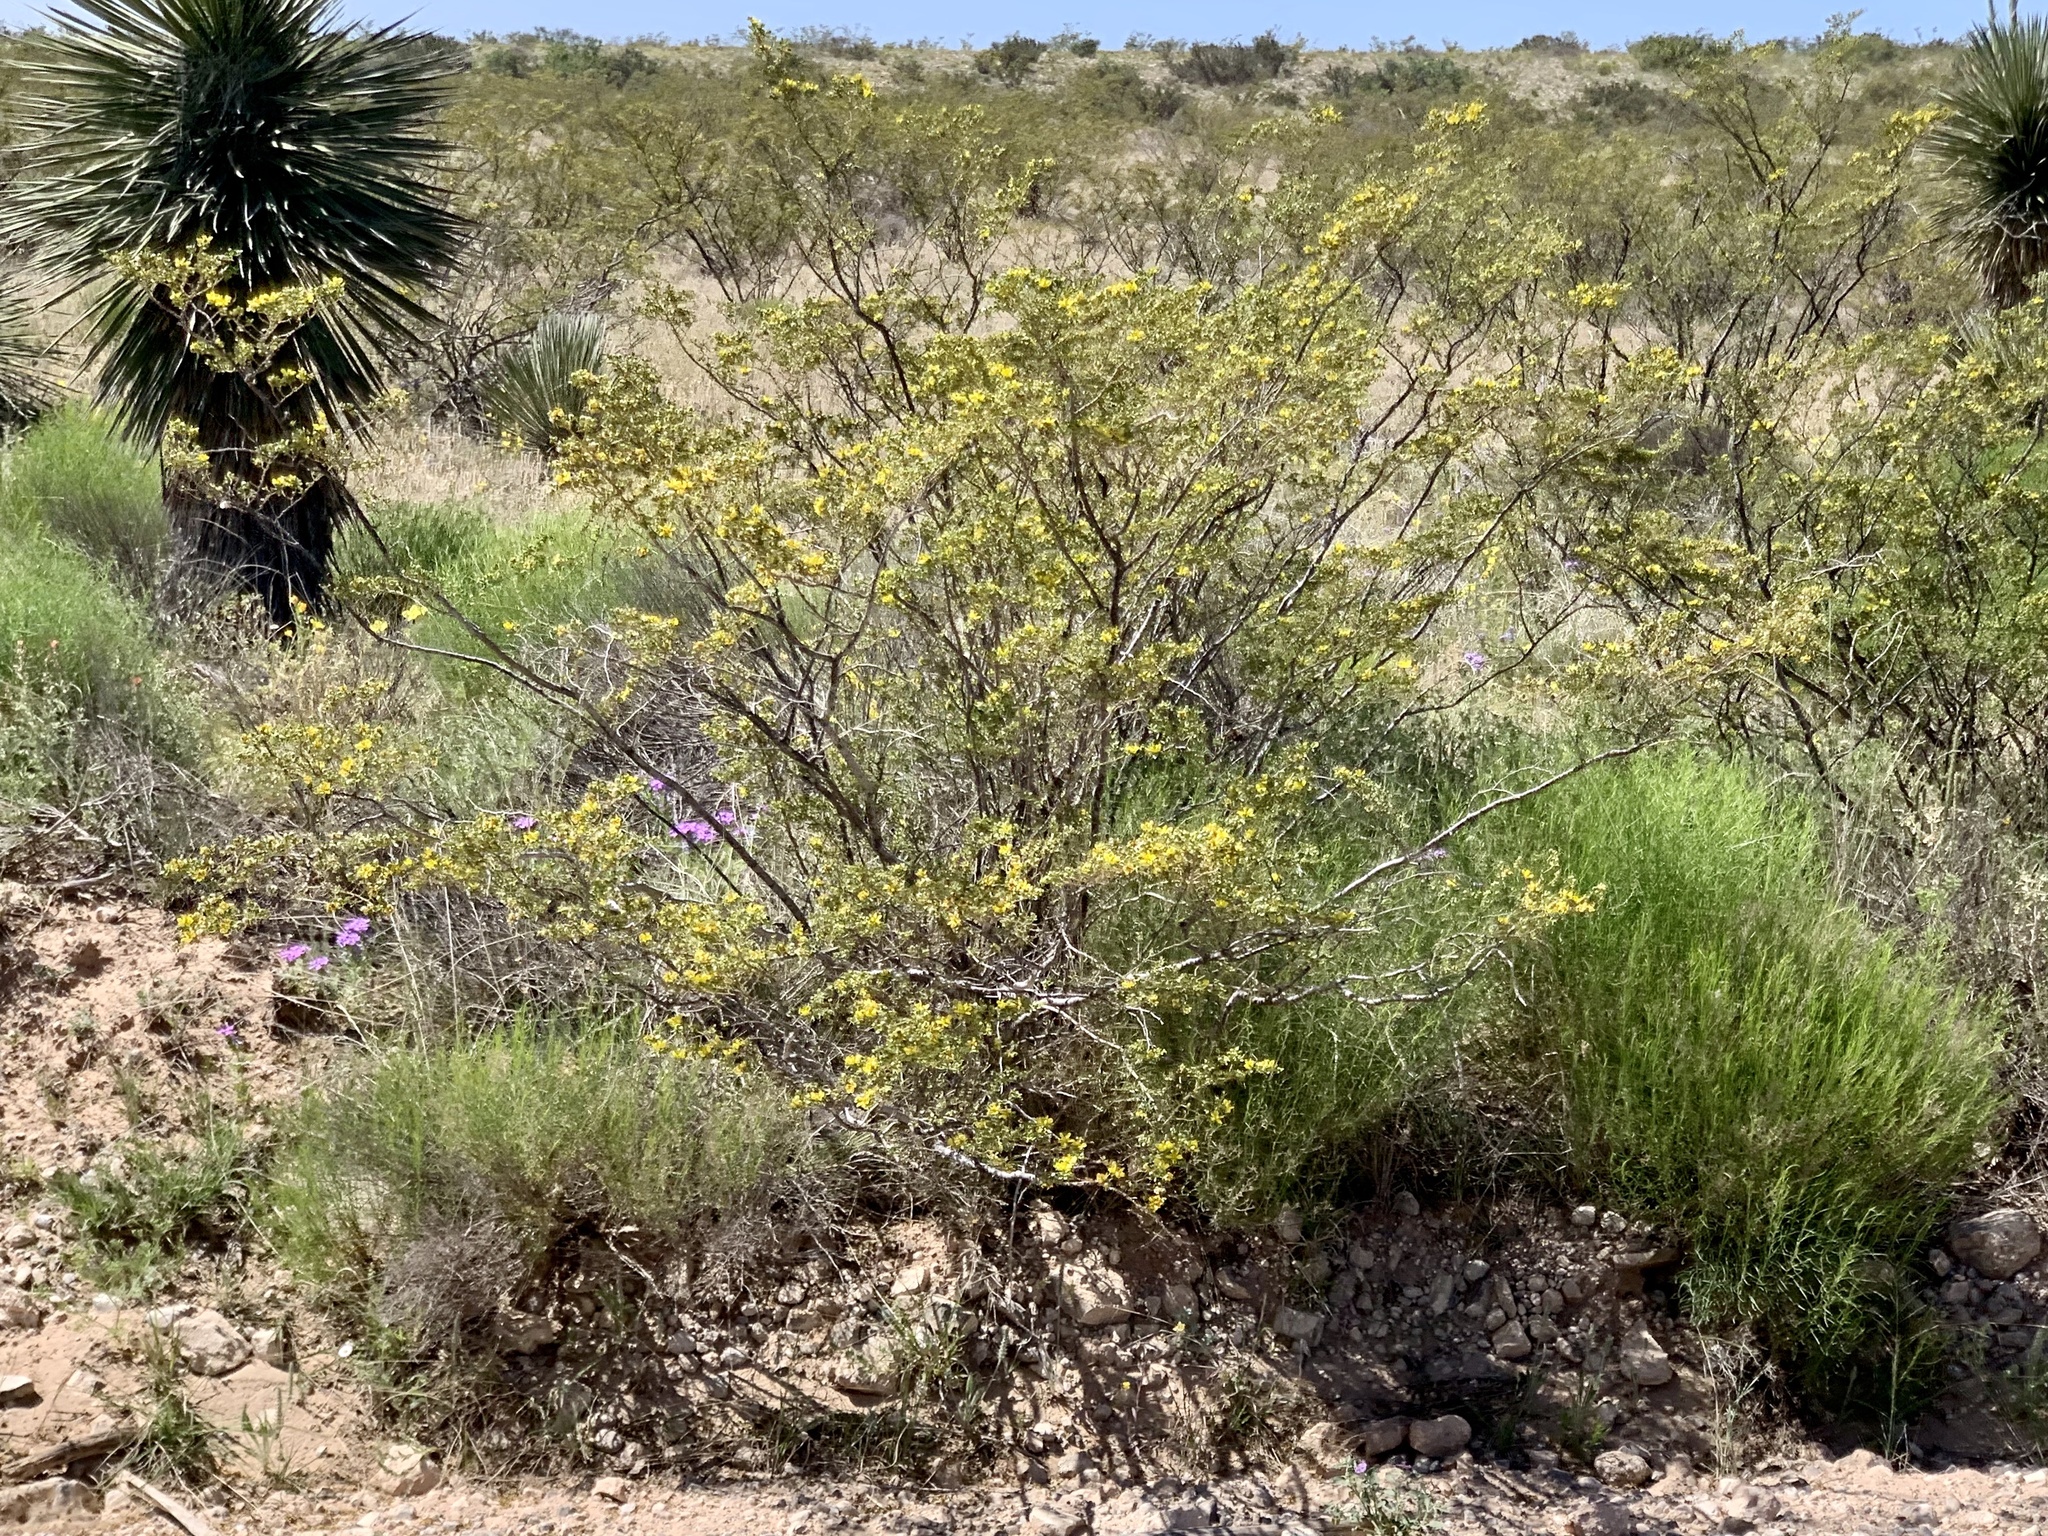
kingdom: Plantae
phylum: Tracheophyta
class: Magnoliopsida
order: Zygophyllales
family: Zygophyllaceae
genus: Larrea
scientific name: Larrea tridentata
